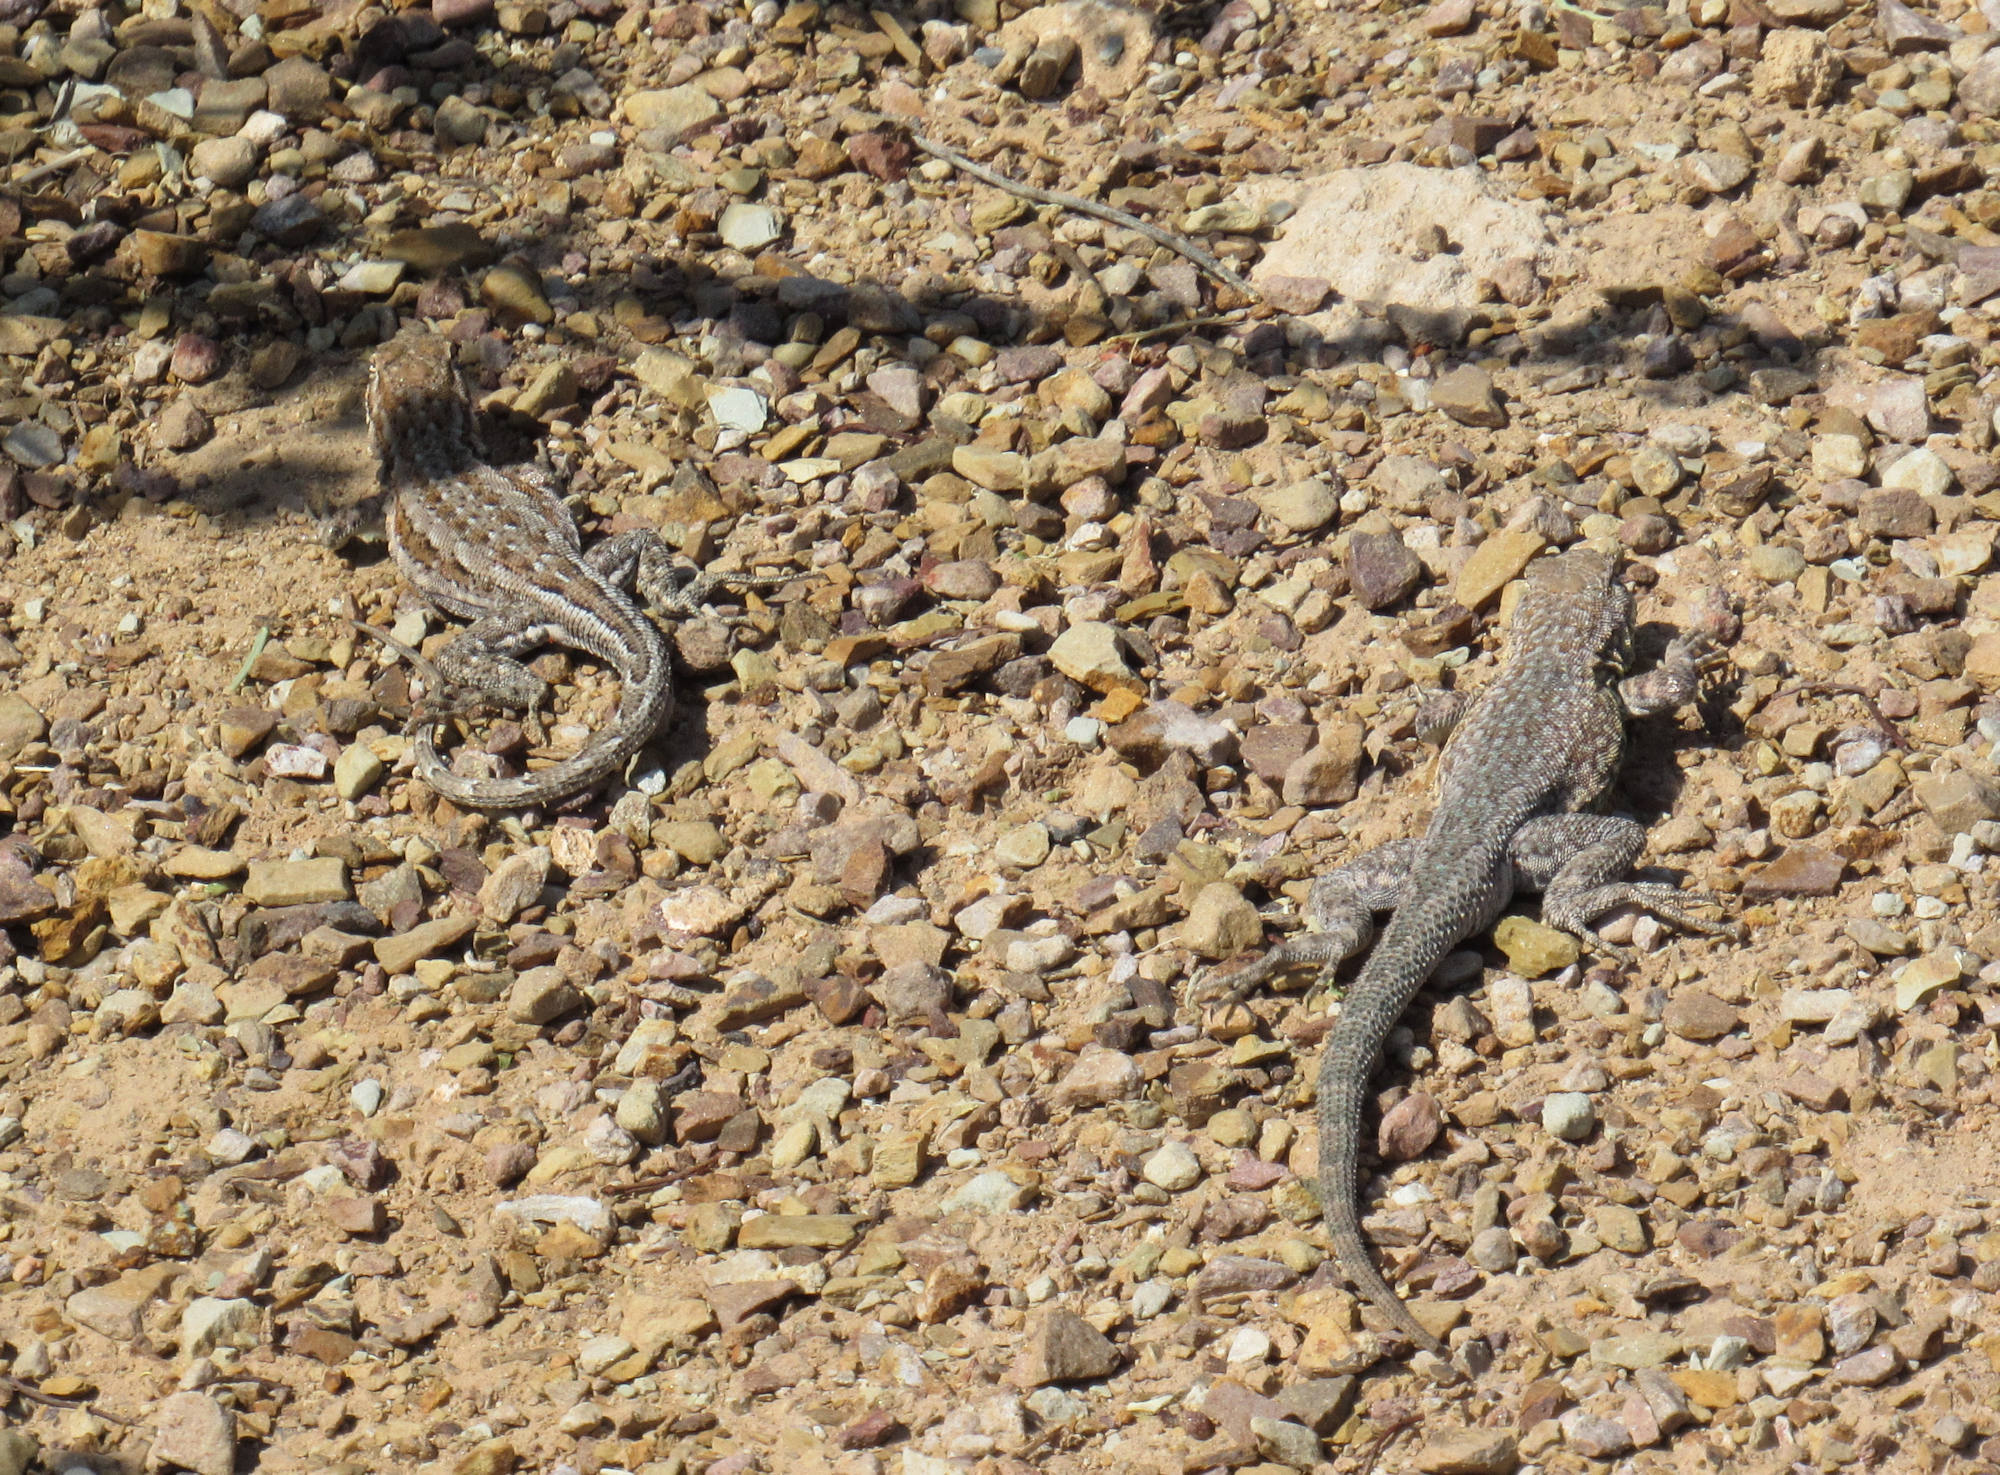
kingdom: Animalia
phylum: Chordata
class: Squamata
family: Phrynosomatidae
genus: Uta
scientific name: Uta stansburiana
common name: Side-blotched lizard
